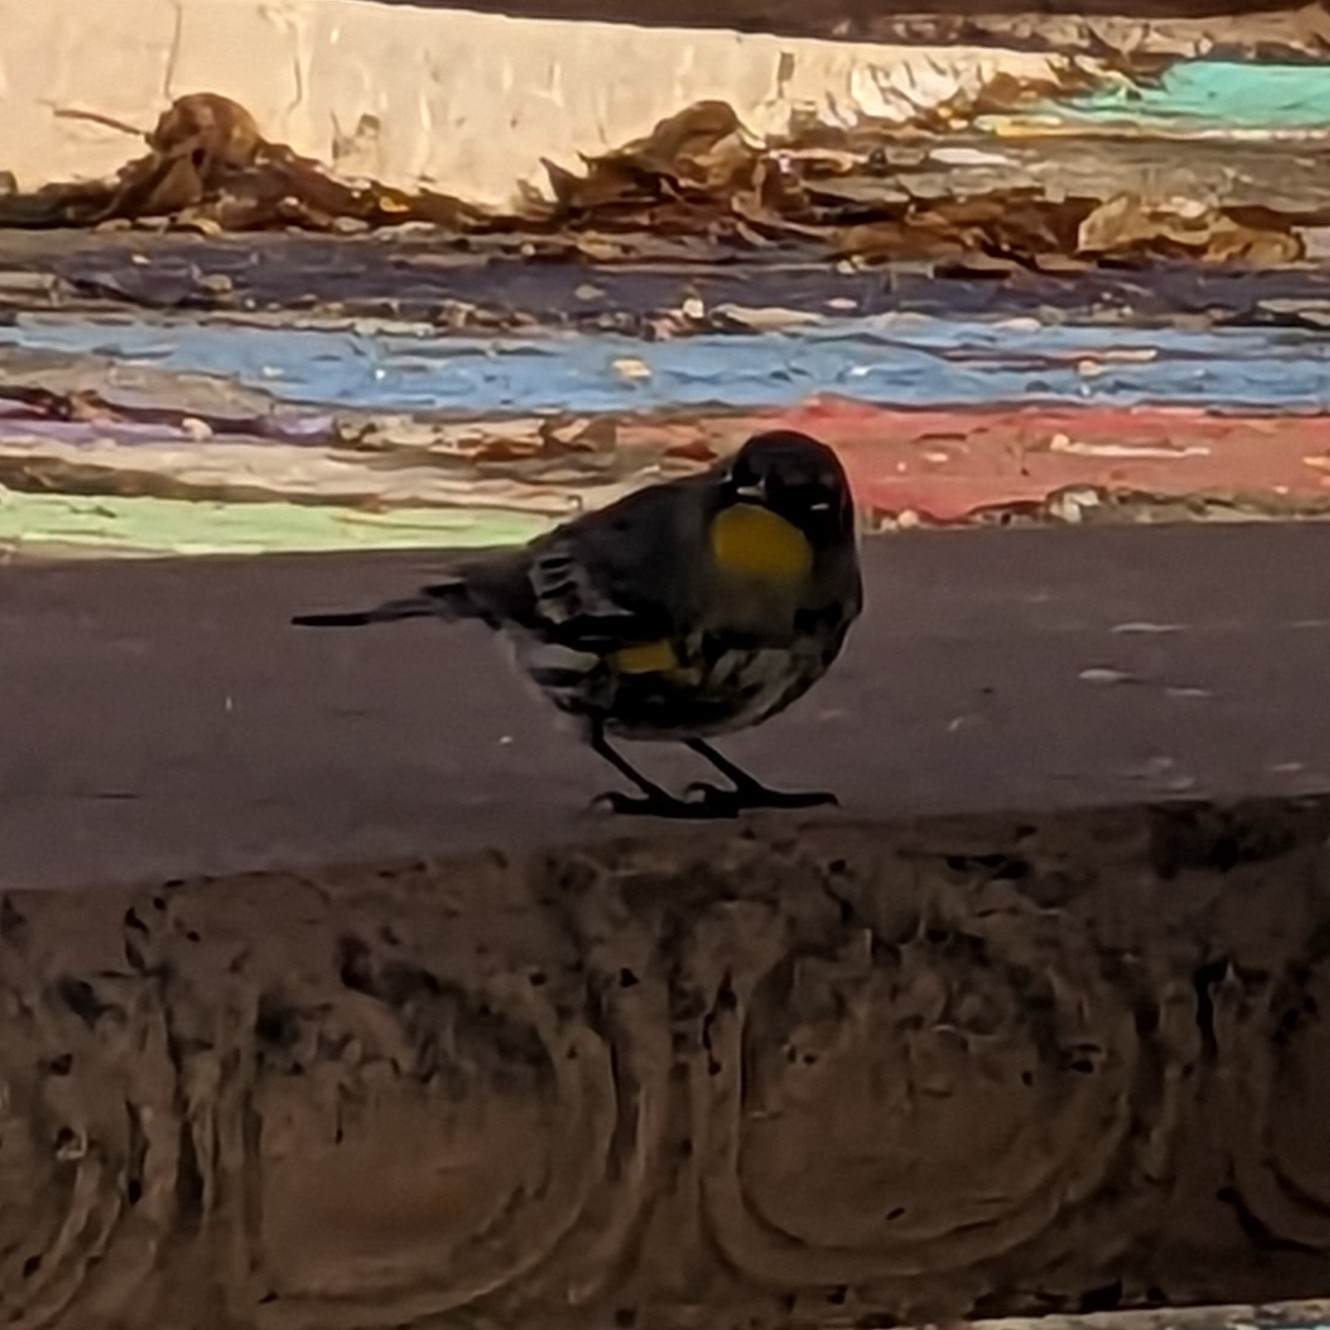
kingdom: Animalia
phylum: Chordata
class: Aves
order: Passeriformes
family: Parulidae
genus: Setophaga
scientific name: Setophaga coronata
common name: Myrtle warbler
